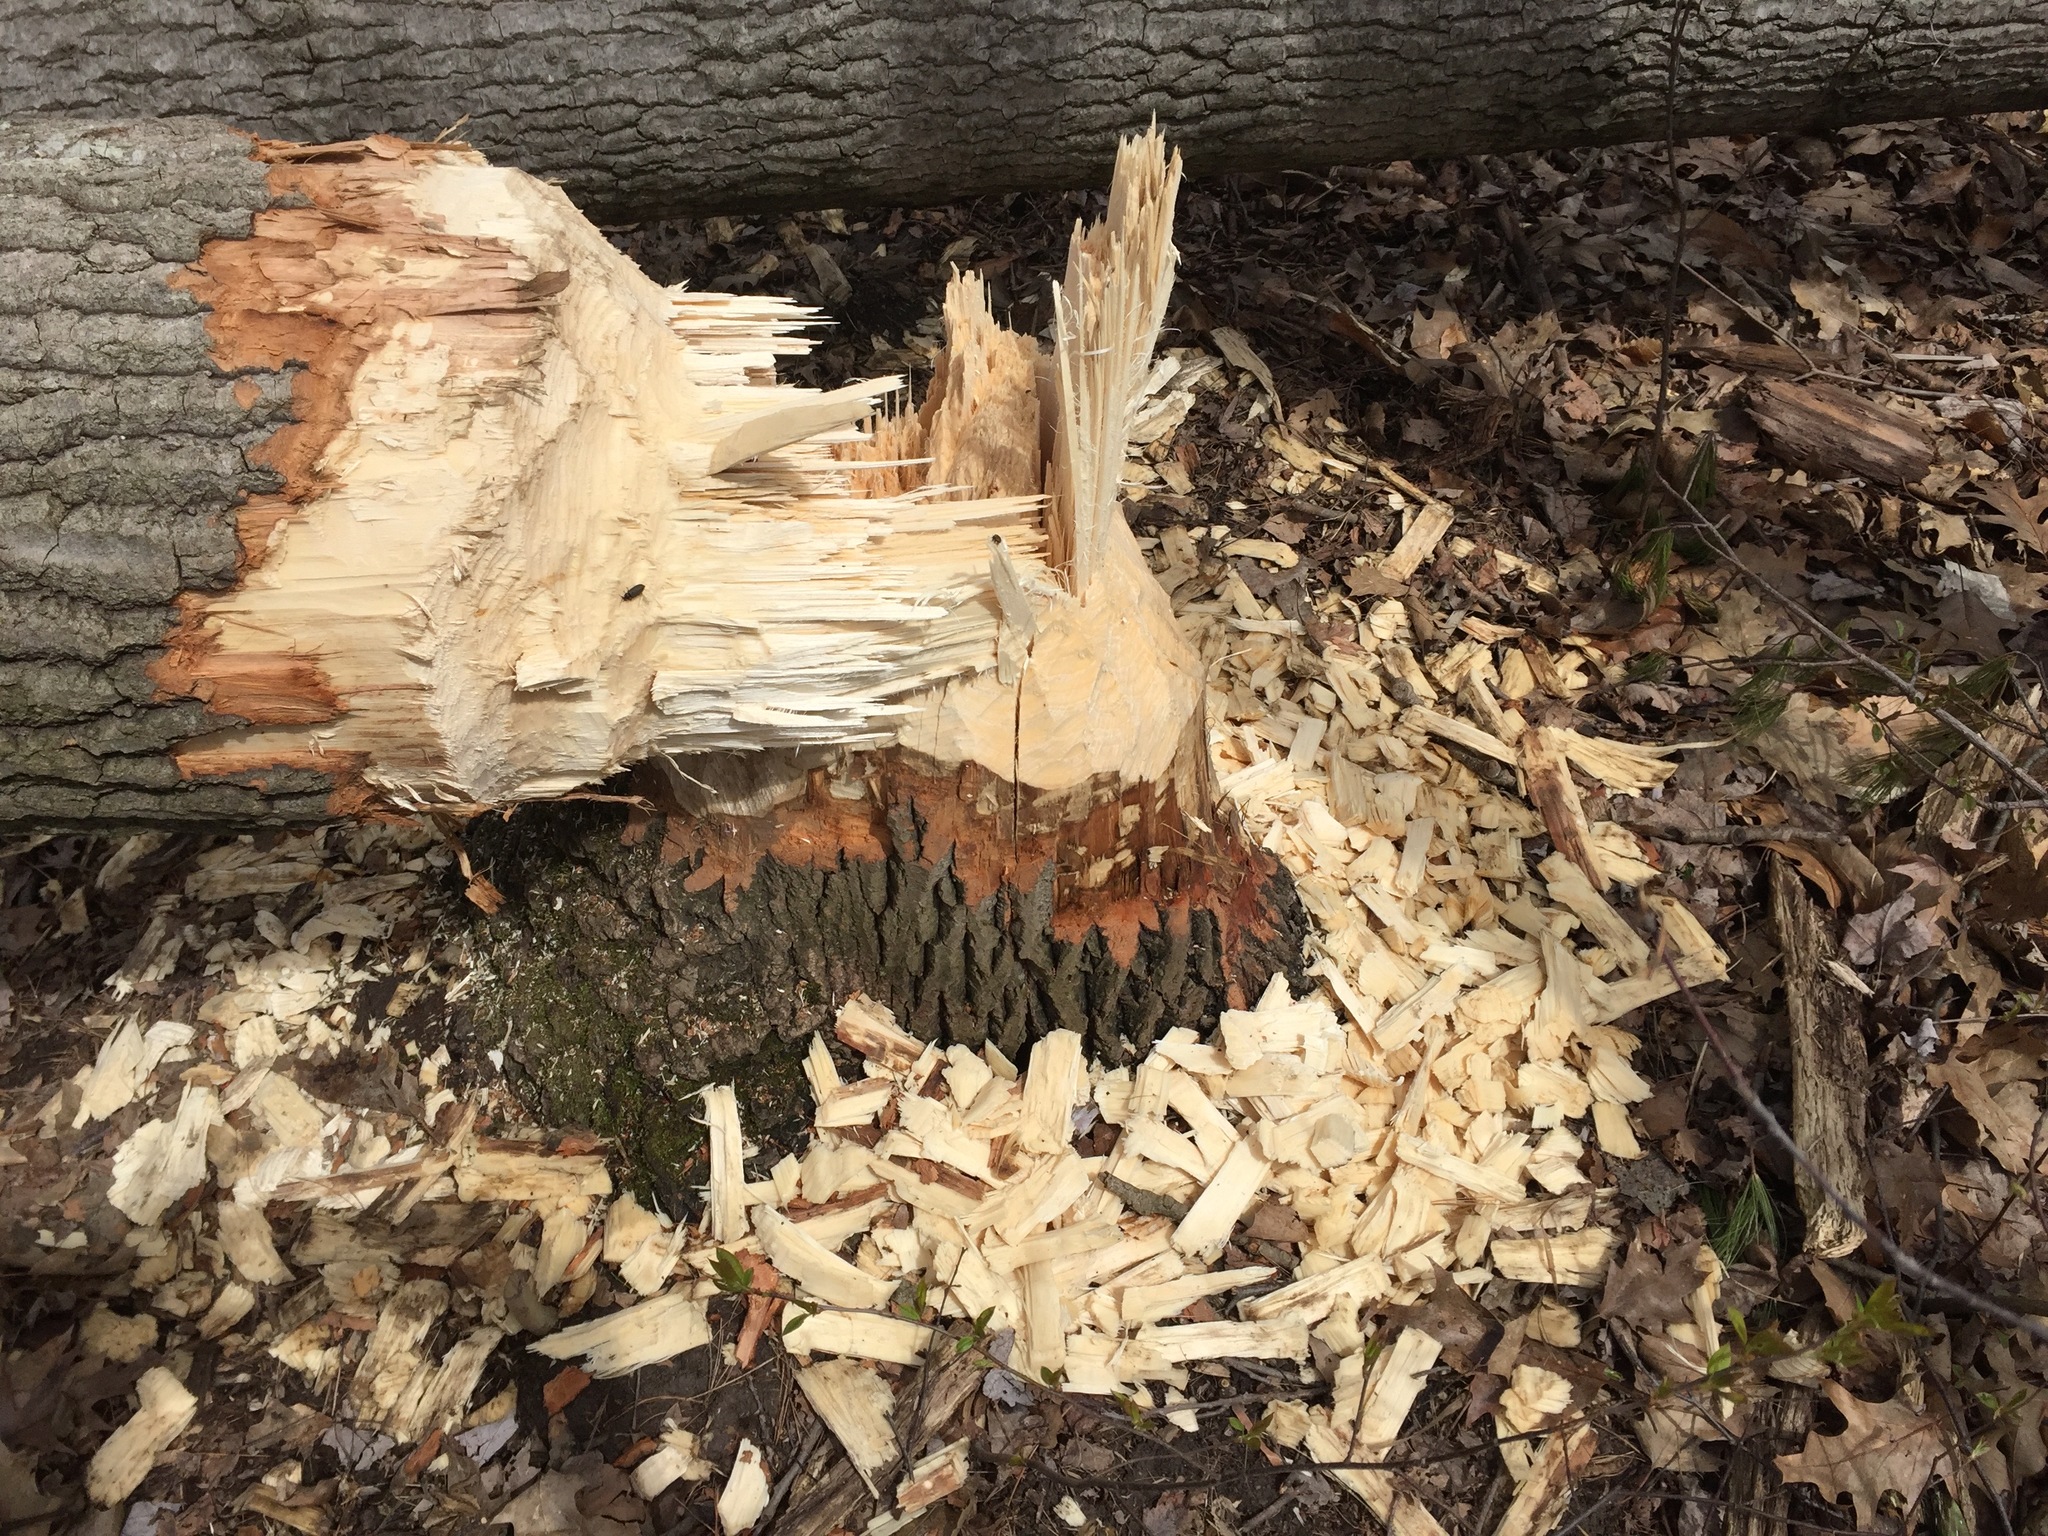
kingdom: Animalia
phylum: Chordata
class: Mammalia
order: Rodentia
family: Castoridae
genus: Castor
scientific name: Castor canadensis
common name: American beaver
